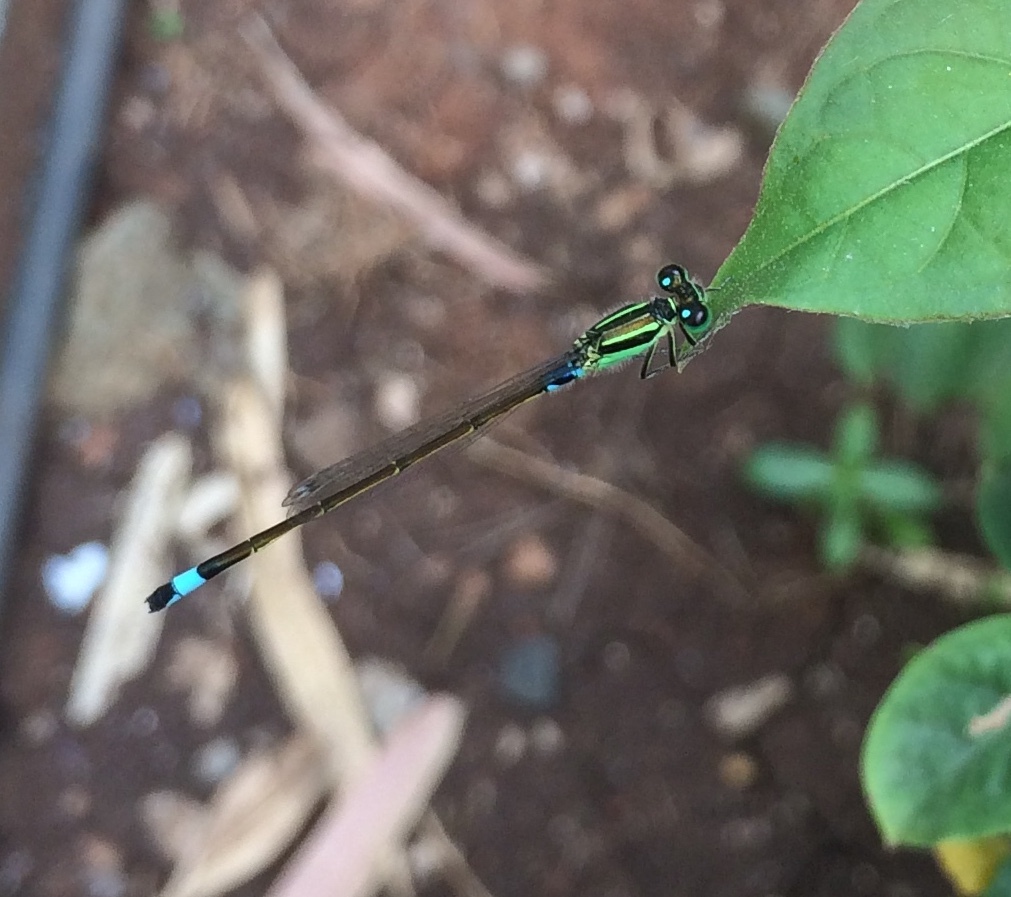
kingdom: Animalia
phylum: Arthropoda
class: Insecta
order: Odonata
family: Coenagrionidae
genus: Ischnura
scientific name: Ischnura senegalensis
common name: Tropical bluetail
